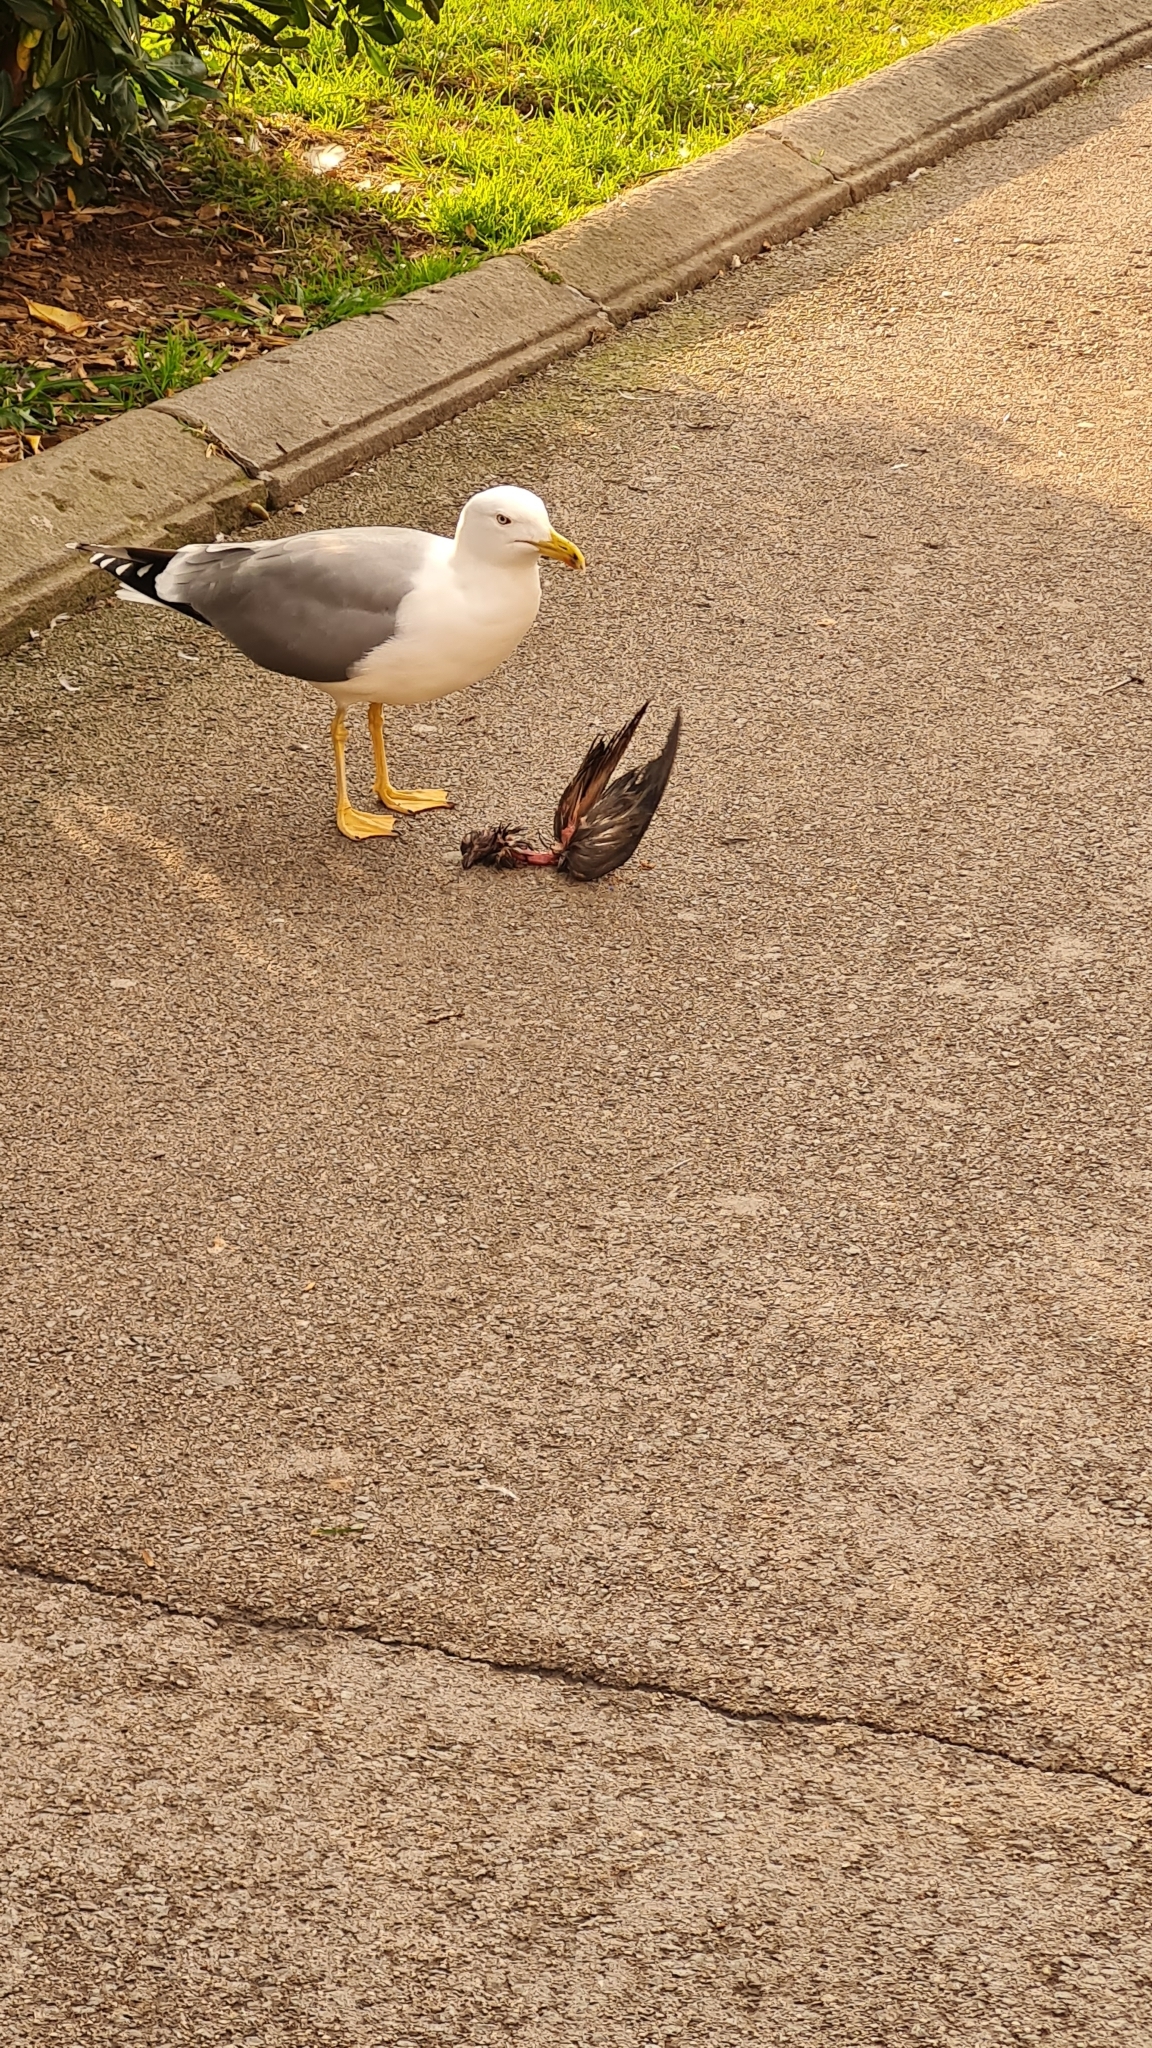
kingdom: Animalia
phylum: Chordata
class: Aves
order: Charadriiformes
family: Laridae
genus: Larus
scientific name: Larus michahellis
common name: Yellow-legged gull
